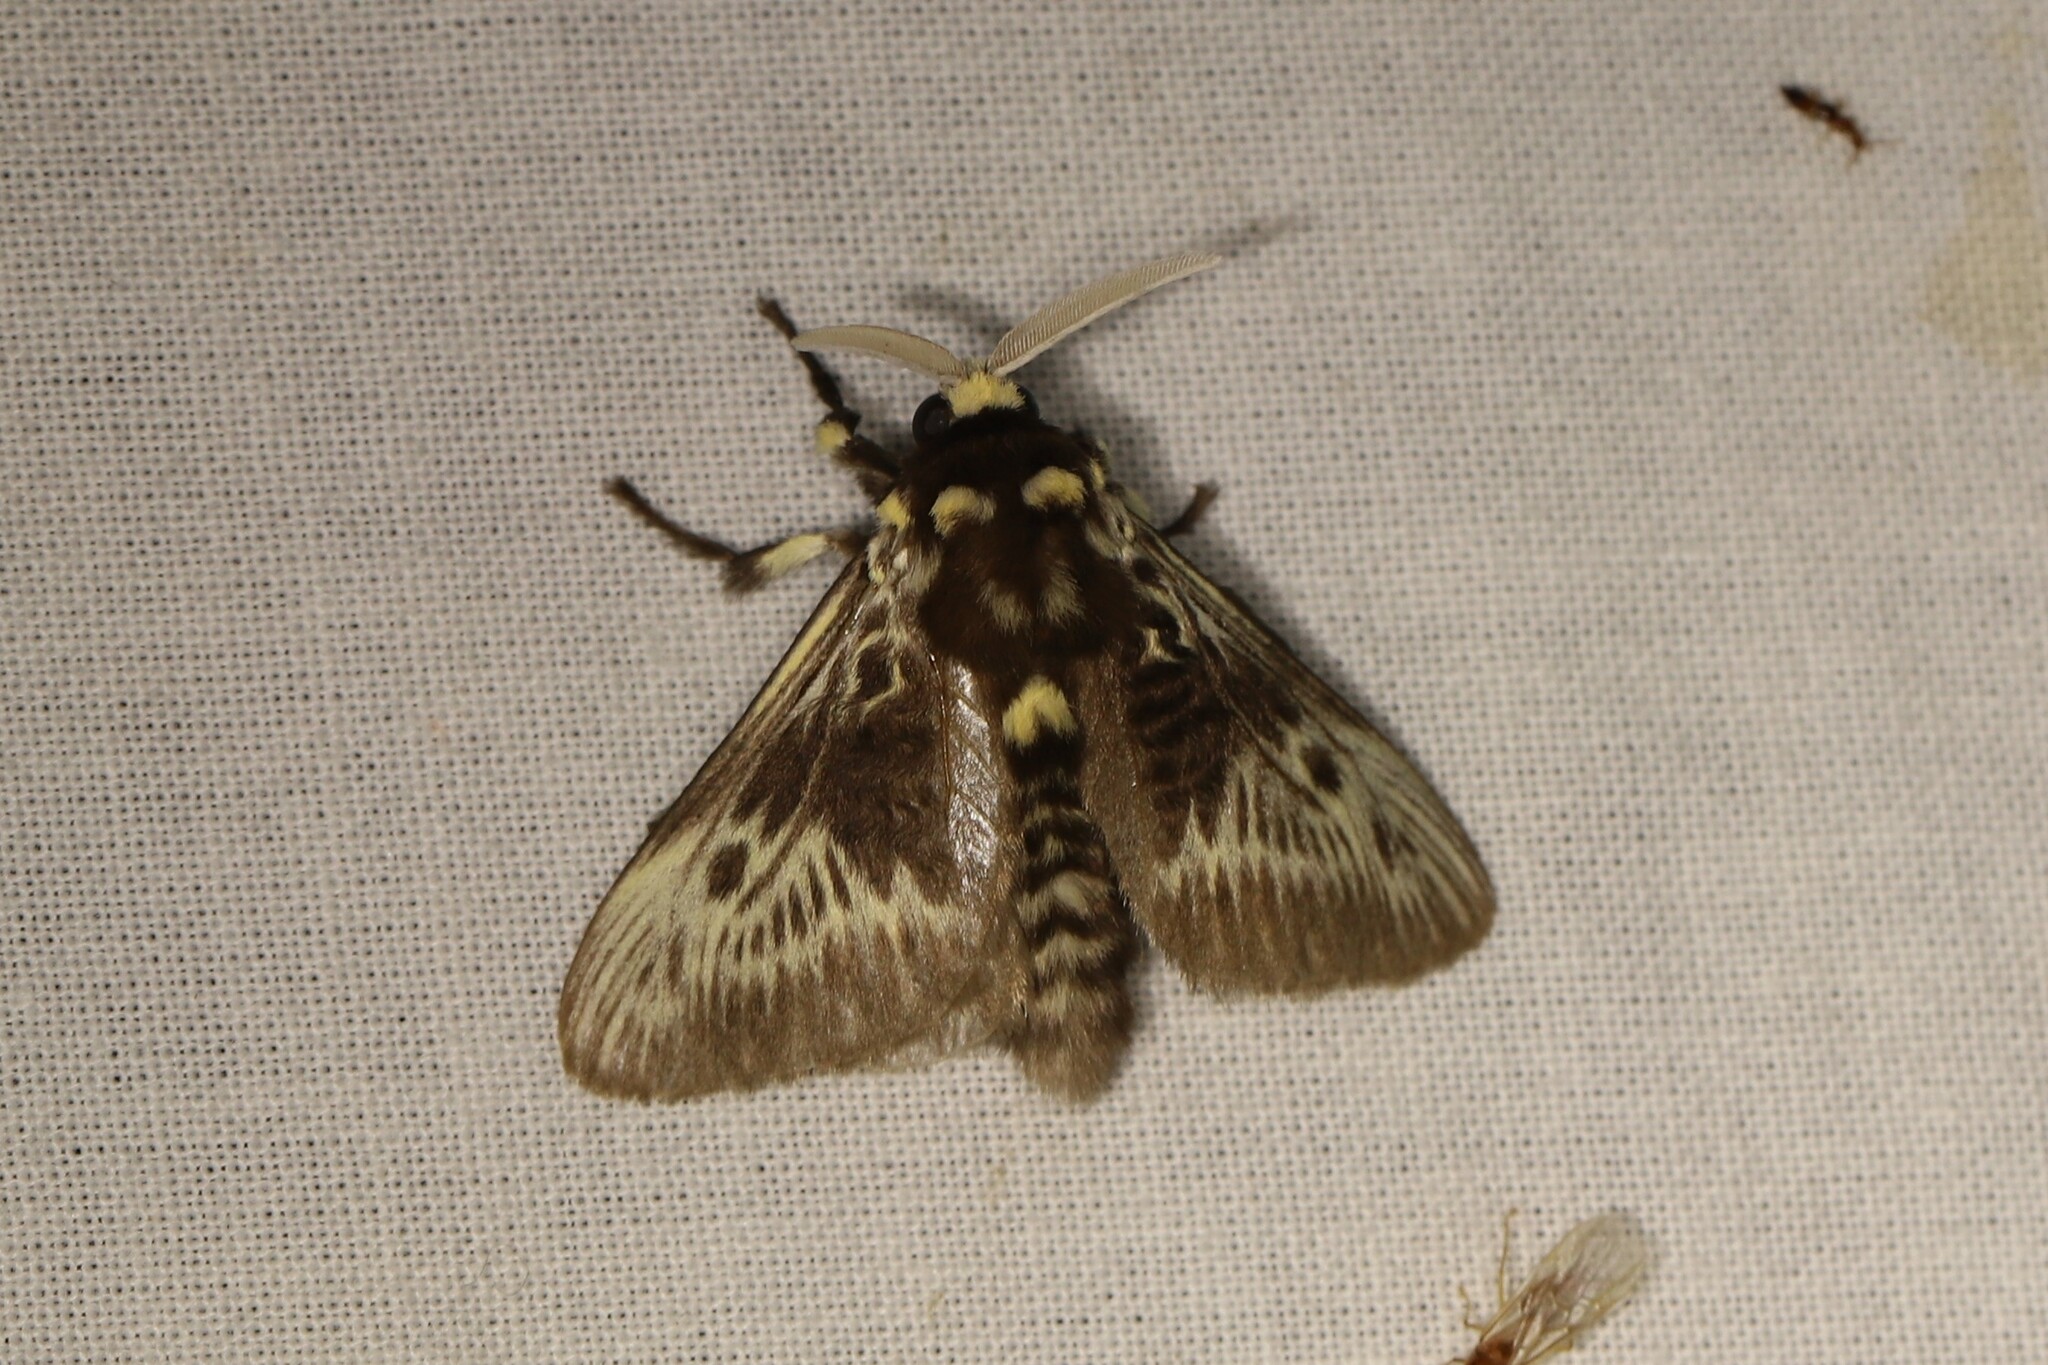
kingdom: Animalia
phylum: Arthropoda
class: Insecta
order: Lepidoptera
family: Megalopygidae
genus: Megalopyge
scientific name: Megalopyge albicollis
